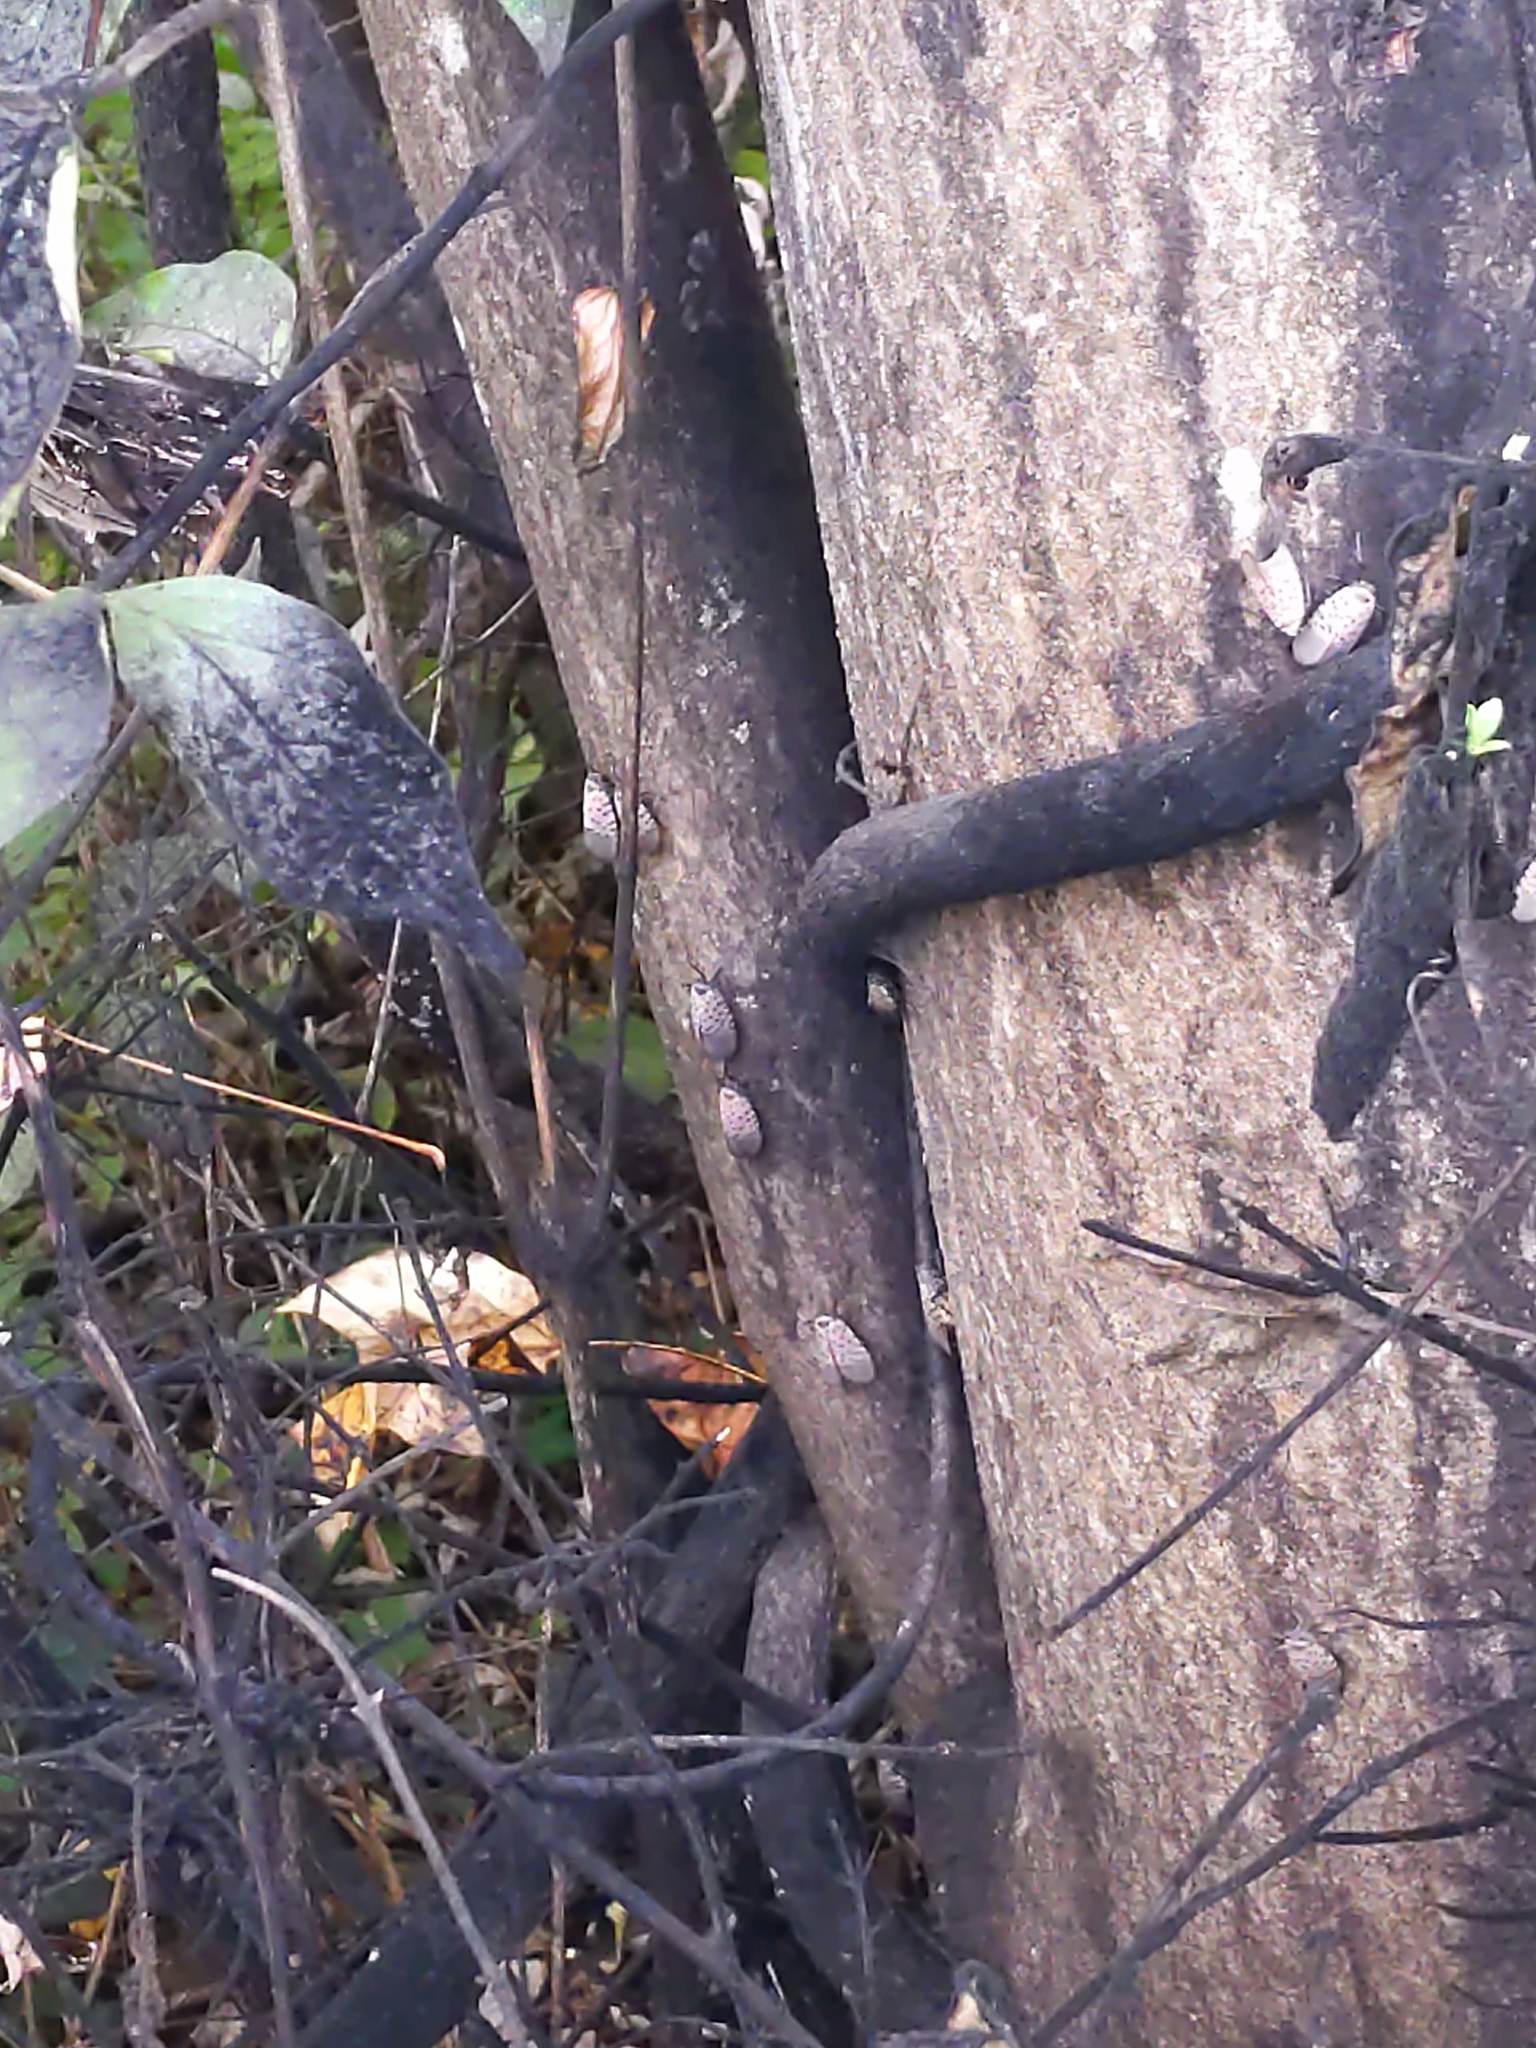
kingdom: Animalia
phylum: Arthropoda
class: Insecta
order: Hemiptera
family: Fulgoridae
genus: Lycorma
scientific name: Lycorma delicatula
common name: Spotted lanternfly
